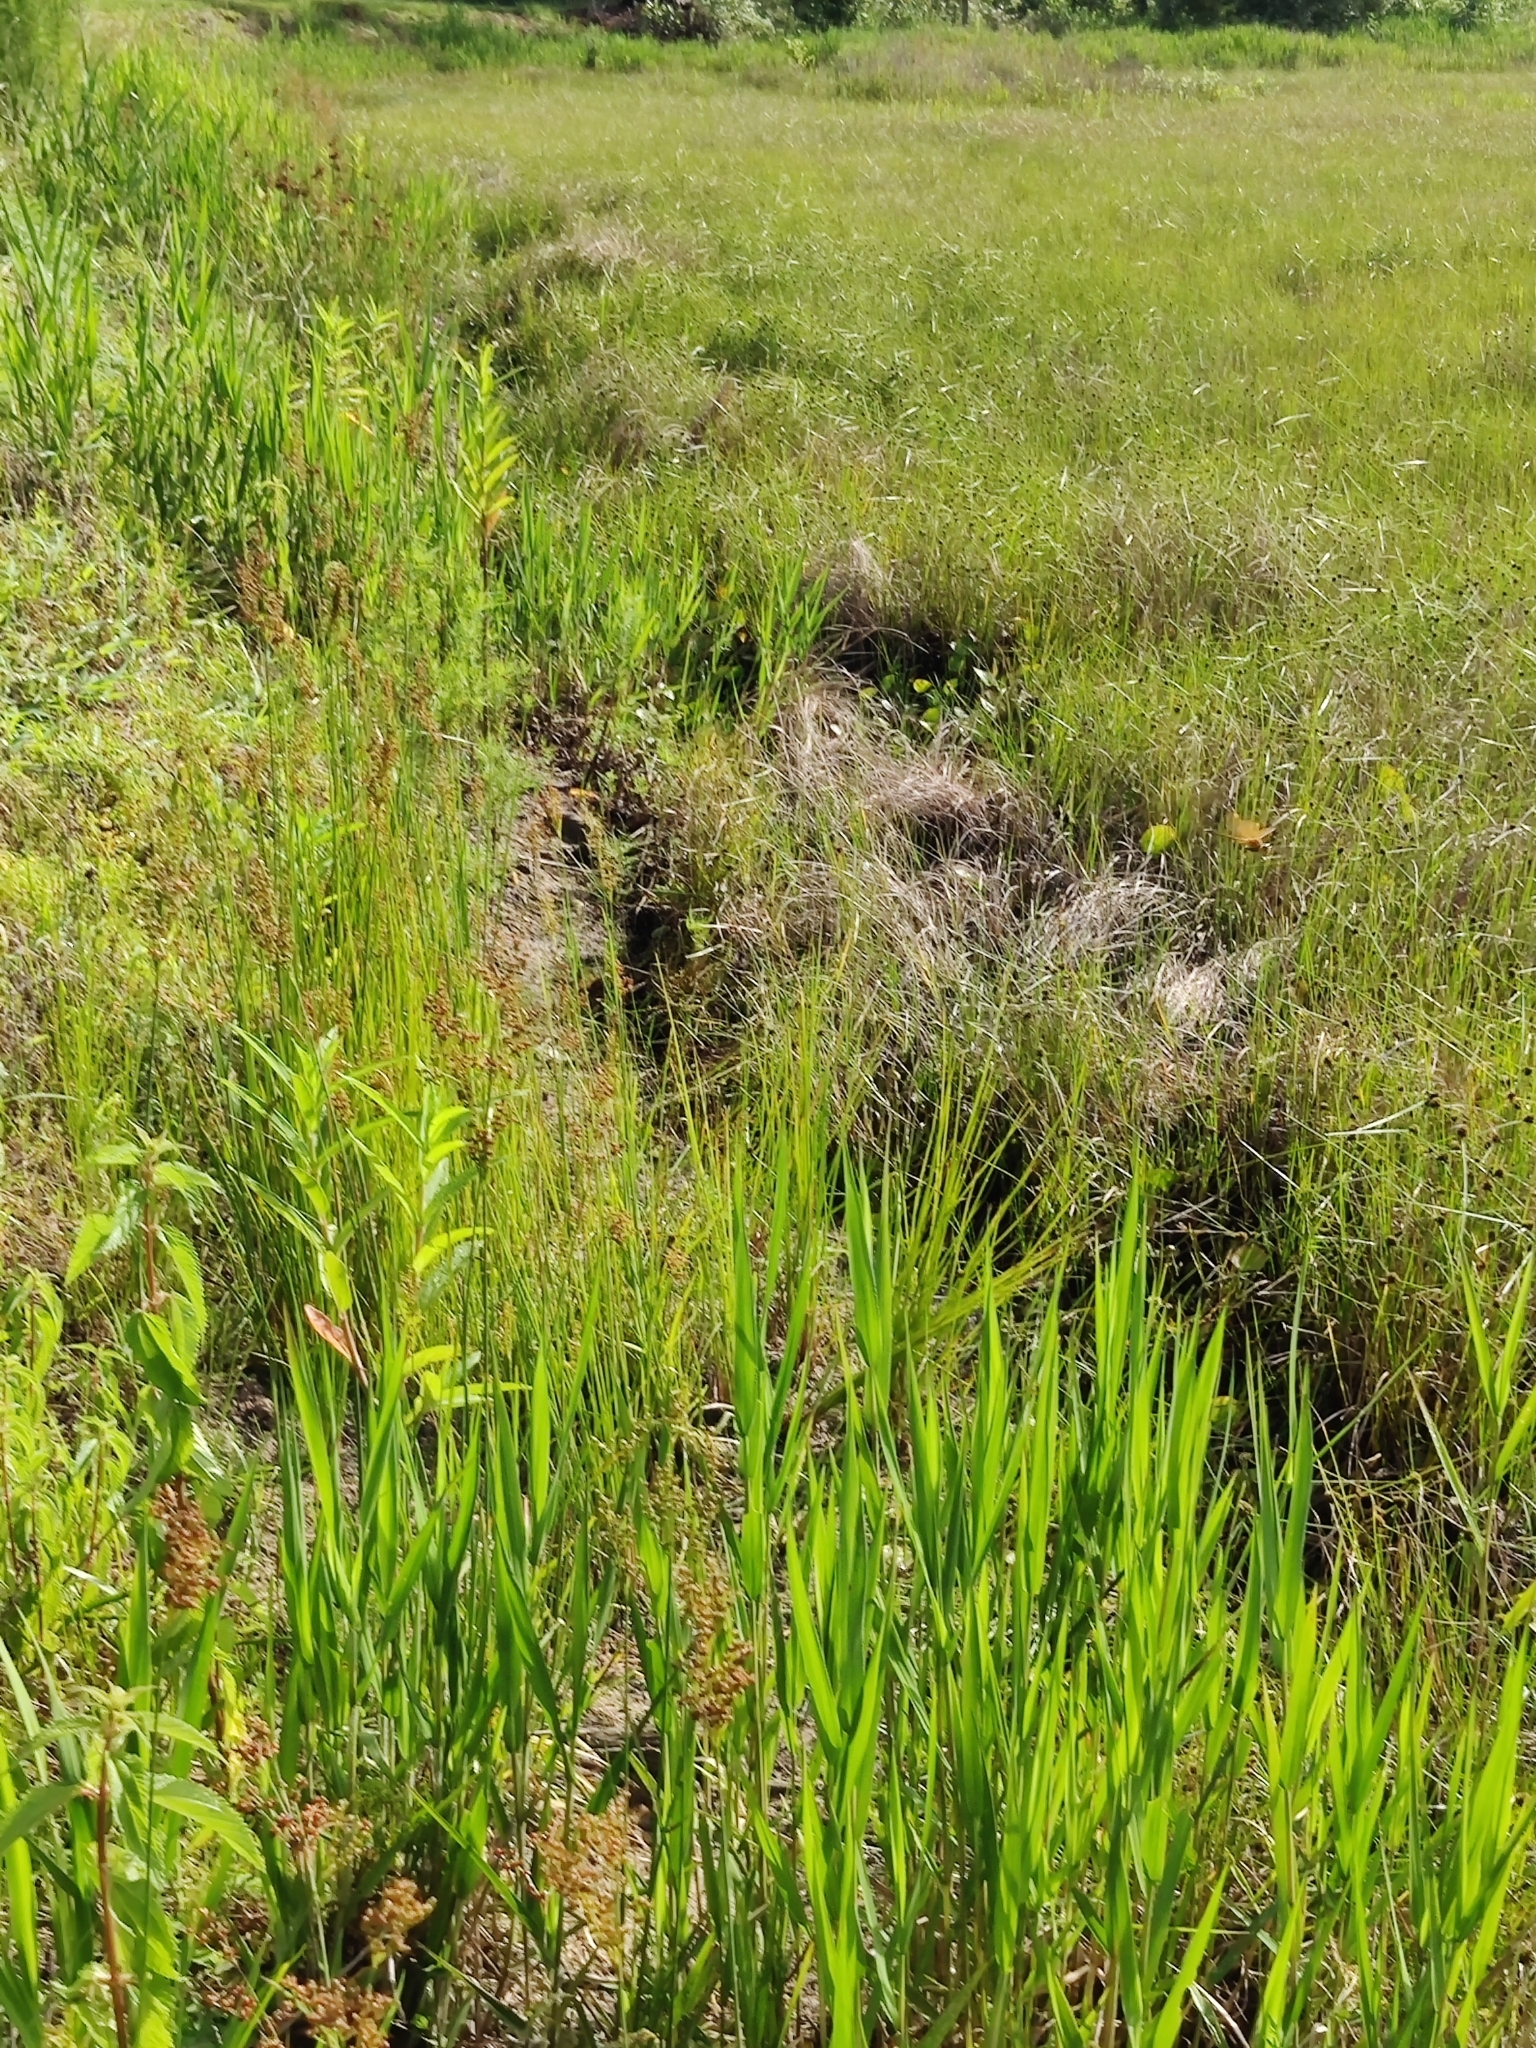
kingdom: Plantae
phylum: Tracheophyta
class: Magnoliopsida
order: Gentianales
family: Apocynaceae
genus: Asclepias
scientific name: Asclepias incarnata
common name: Swamp milkweed
